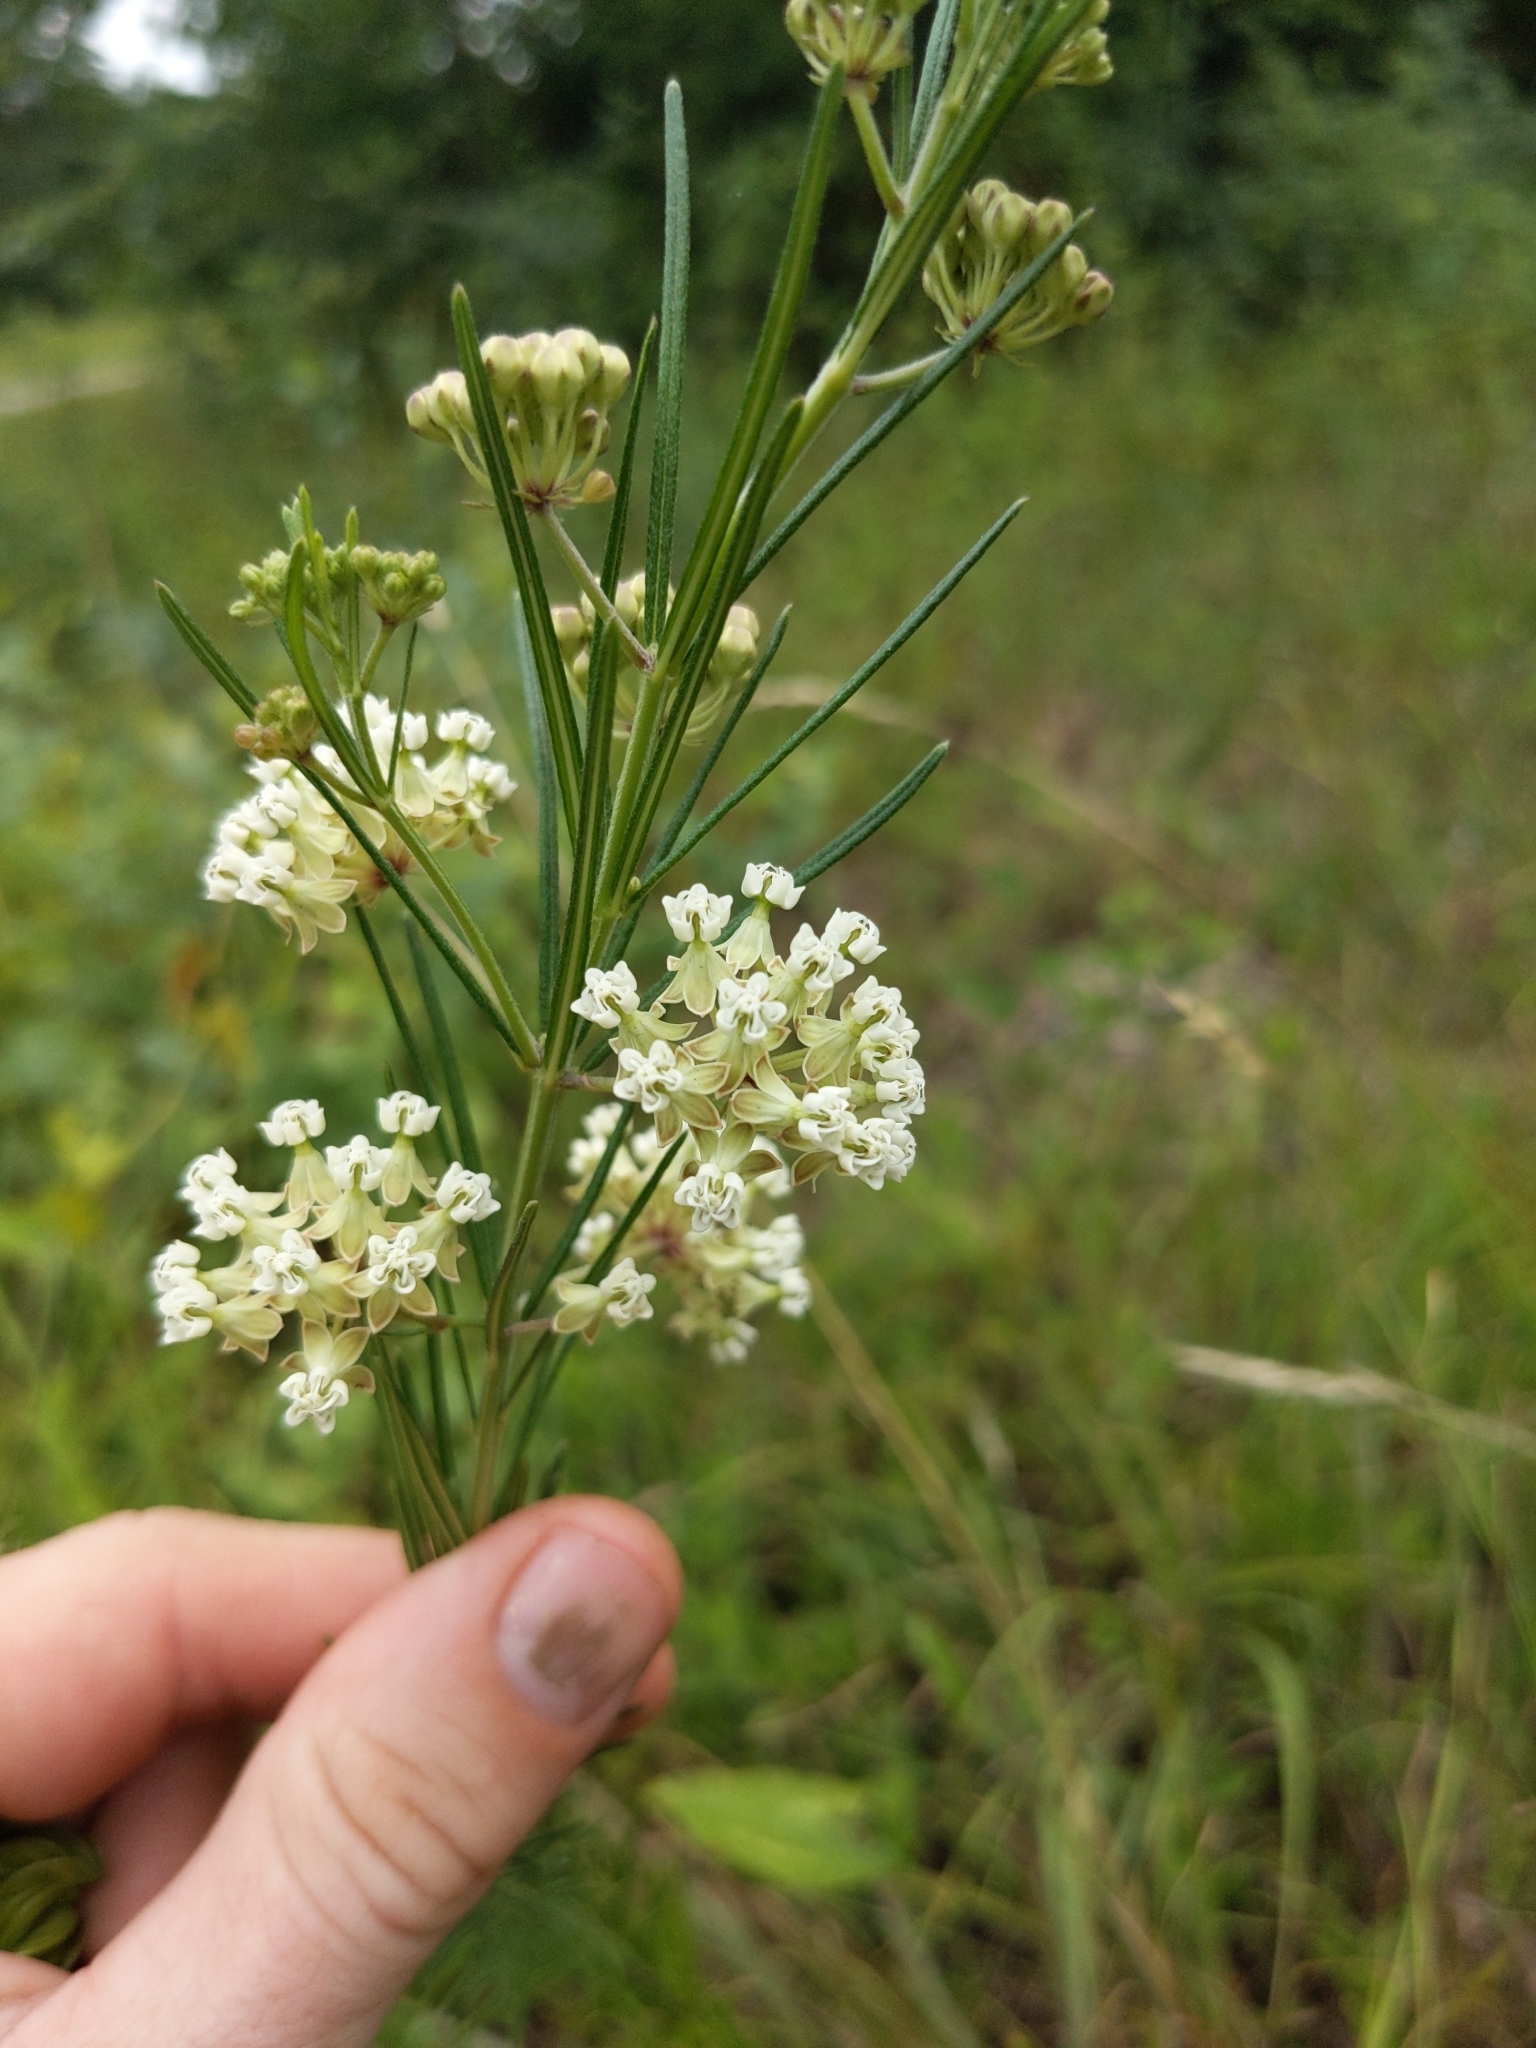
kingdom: Plantae
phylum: Tracheophyta
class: Magnoliopsida
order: Gentianales
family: Apocynaceae
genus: Asclepias
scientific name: Asclepias verticillata
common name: Eastern whorled milkweed
